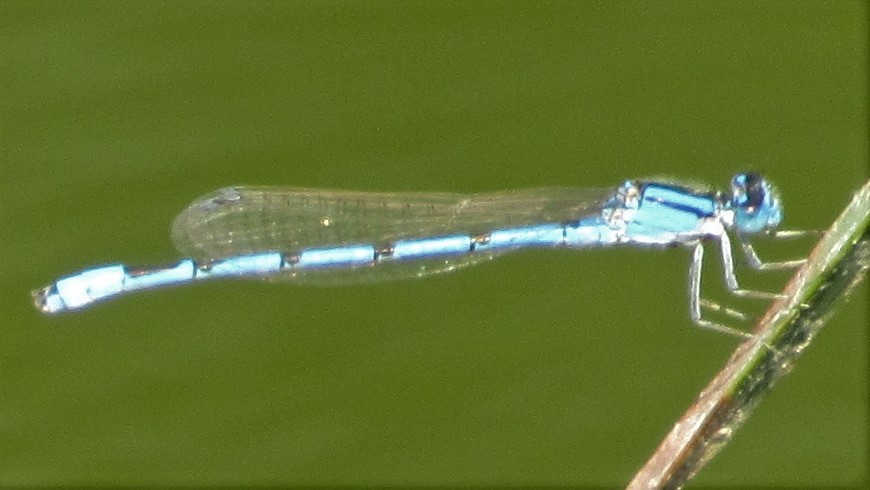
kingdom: Animalia
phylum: Arthropoda
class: Insecta
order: Odonata
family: Coenagrionidae
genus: Enallagma
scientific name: Enallagma civile
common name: Damselfly
